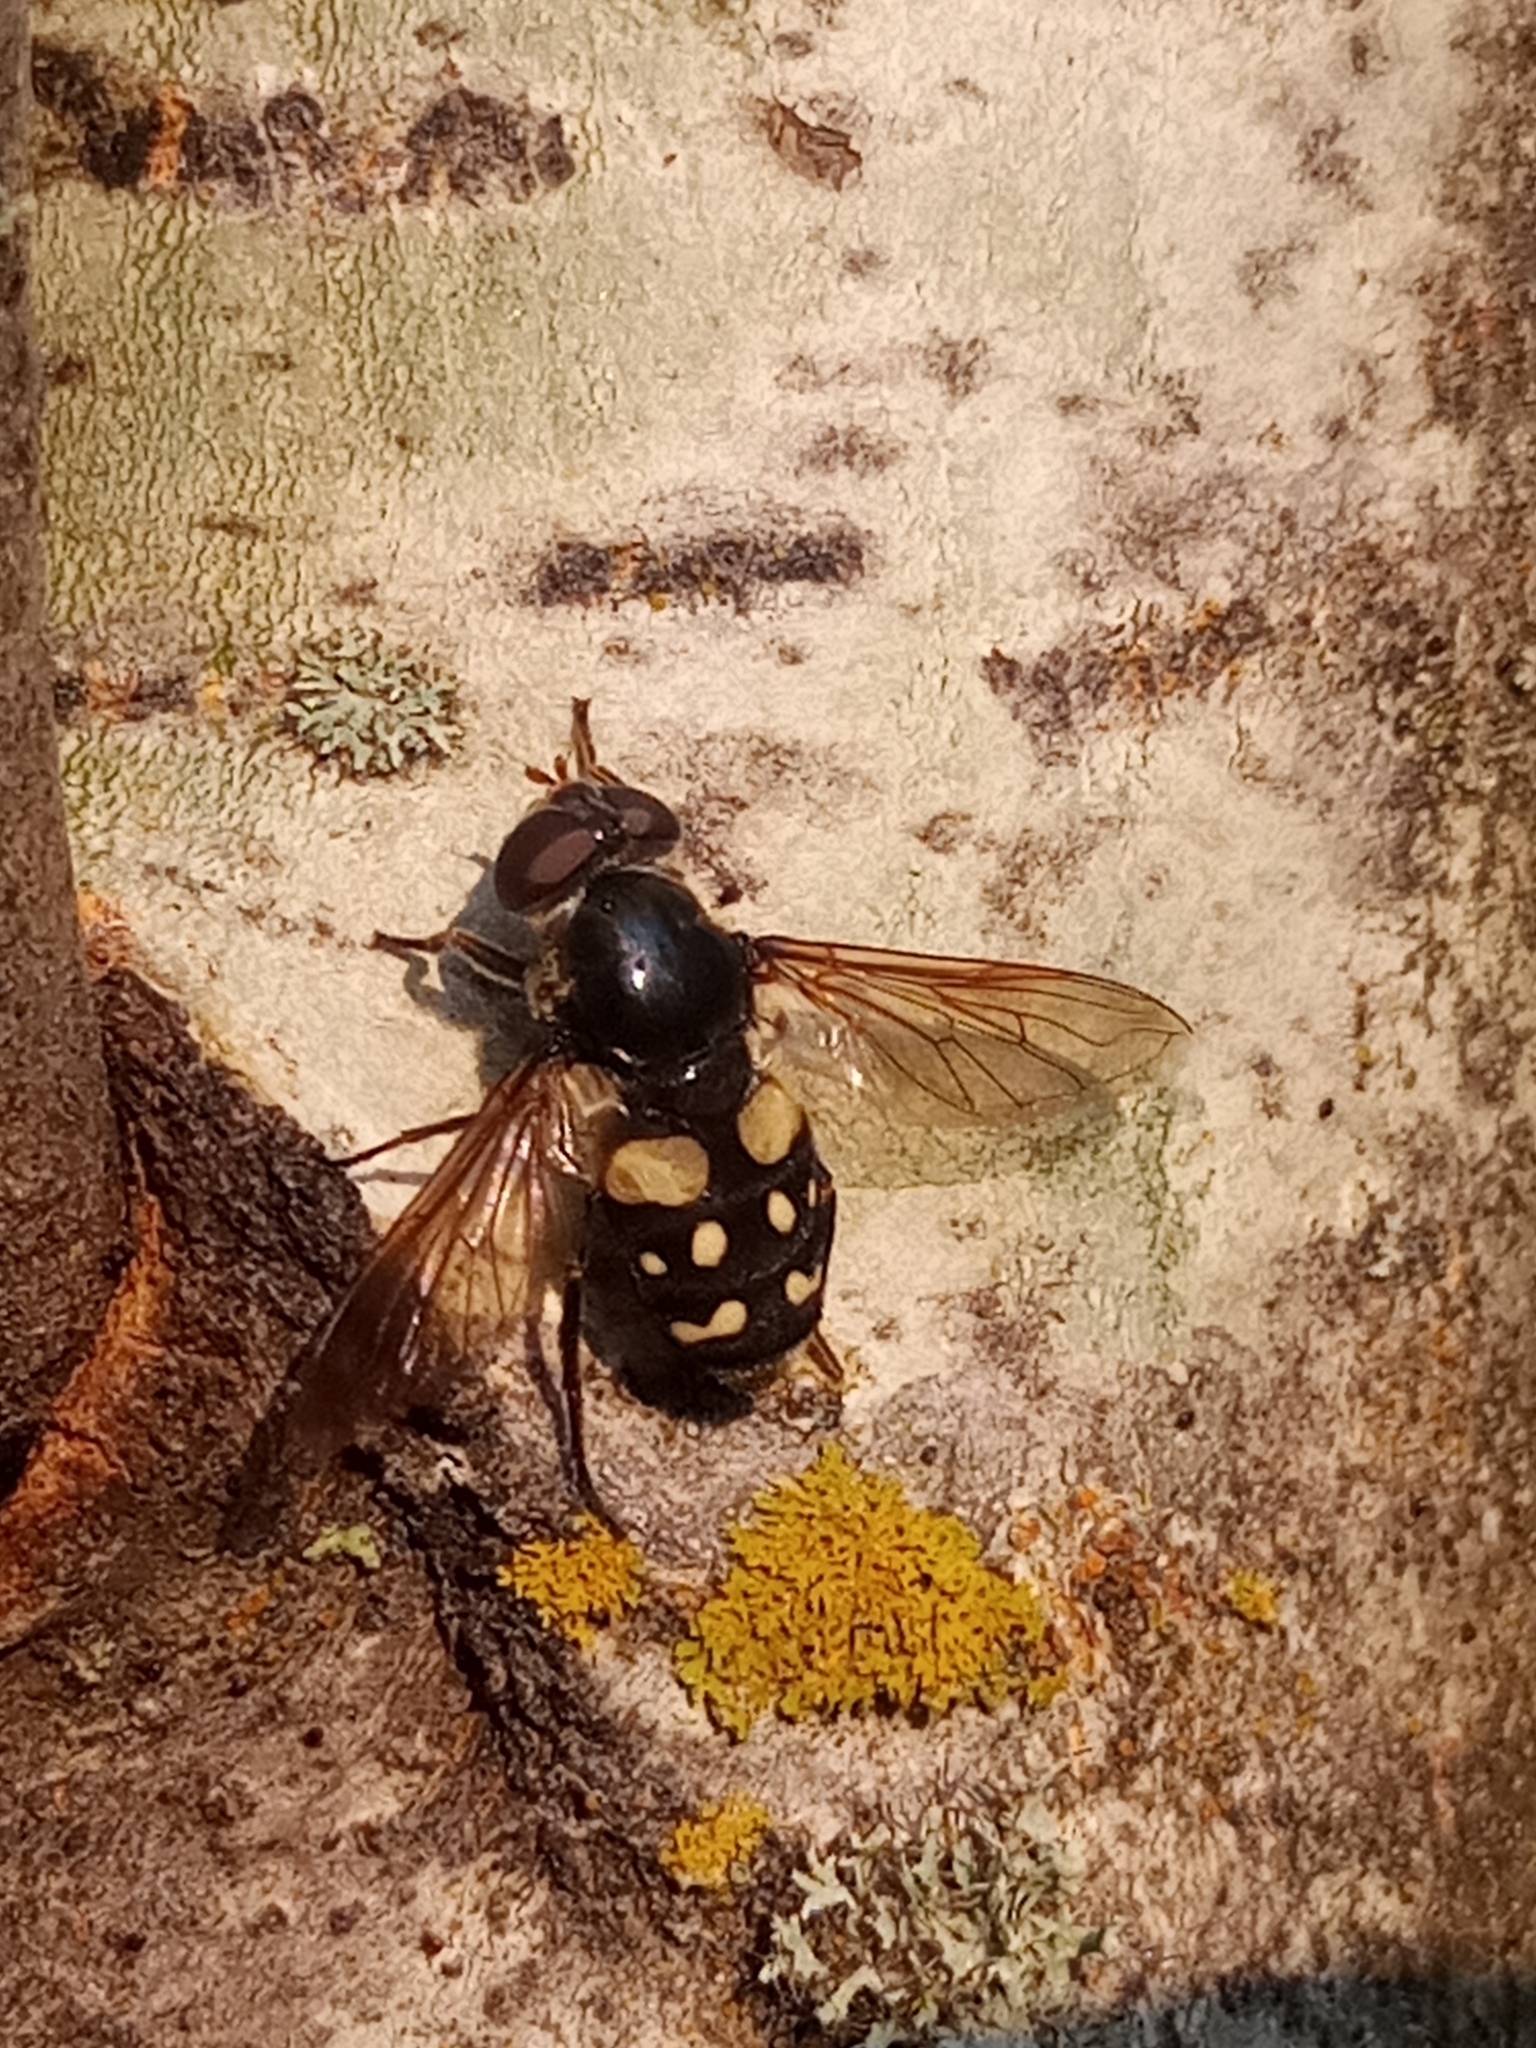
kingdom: Animalia
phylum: Arthropoda
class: Insecta
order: Diptera
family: Syrphidae
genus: Sericomyia
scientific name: Sericomyia lata
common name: White-spotted pond fly
